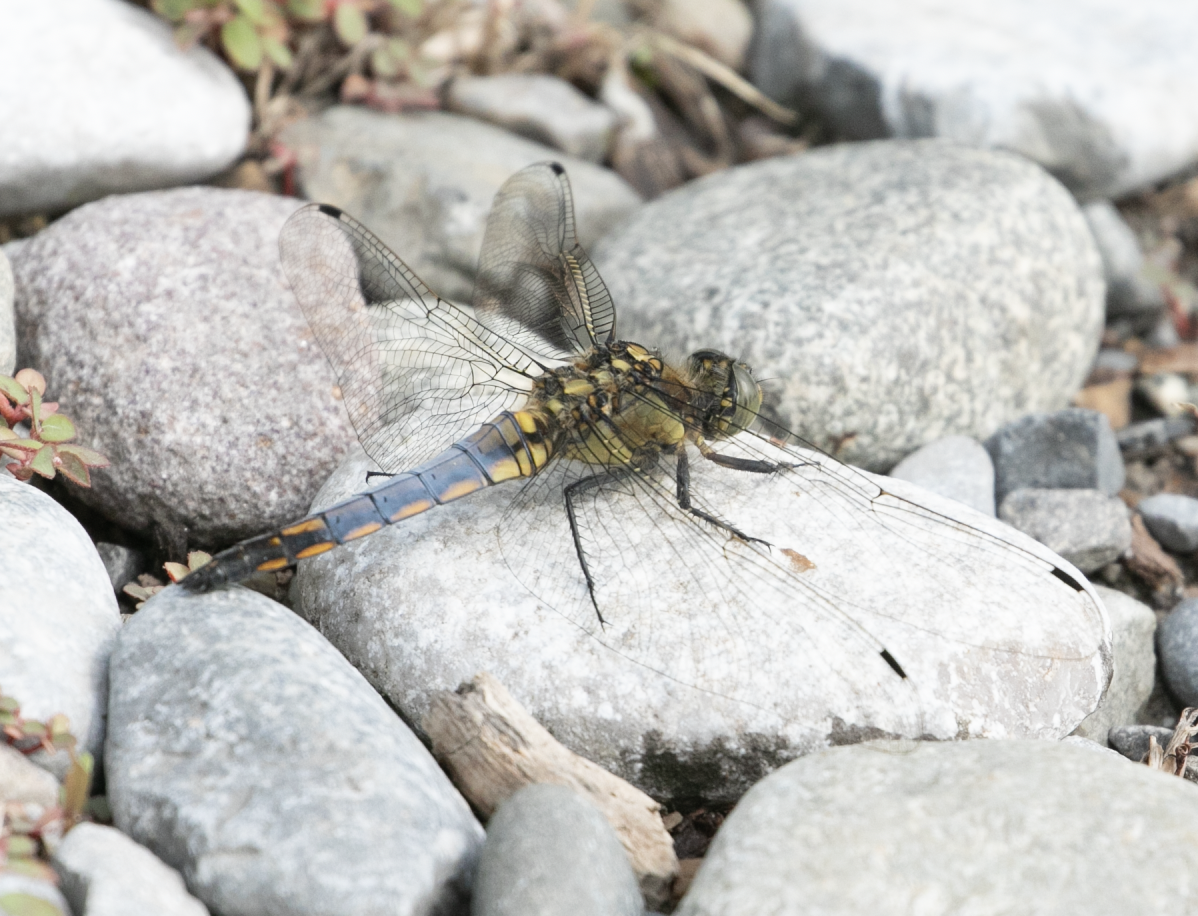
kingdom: Animalia
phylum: Arthropoda
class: Insecta
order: Odonata
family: Libellulidae
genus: Orthetrum
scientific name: Orthetrum cancellatum
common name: Black-tailed skimmer
